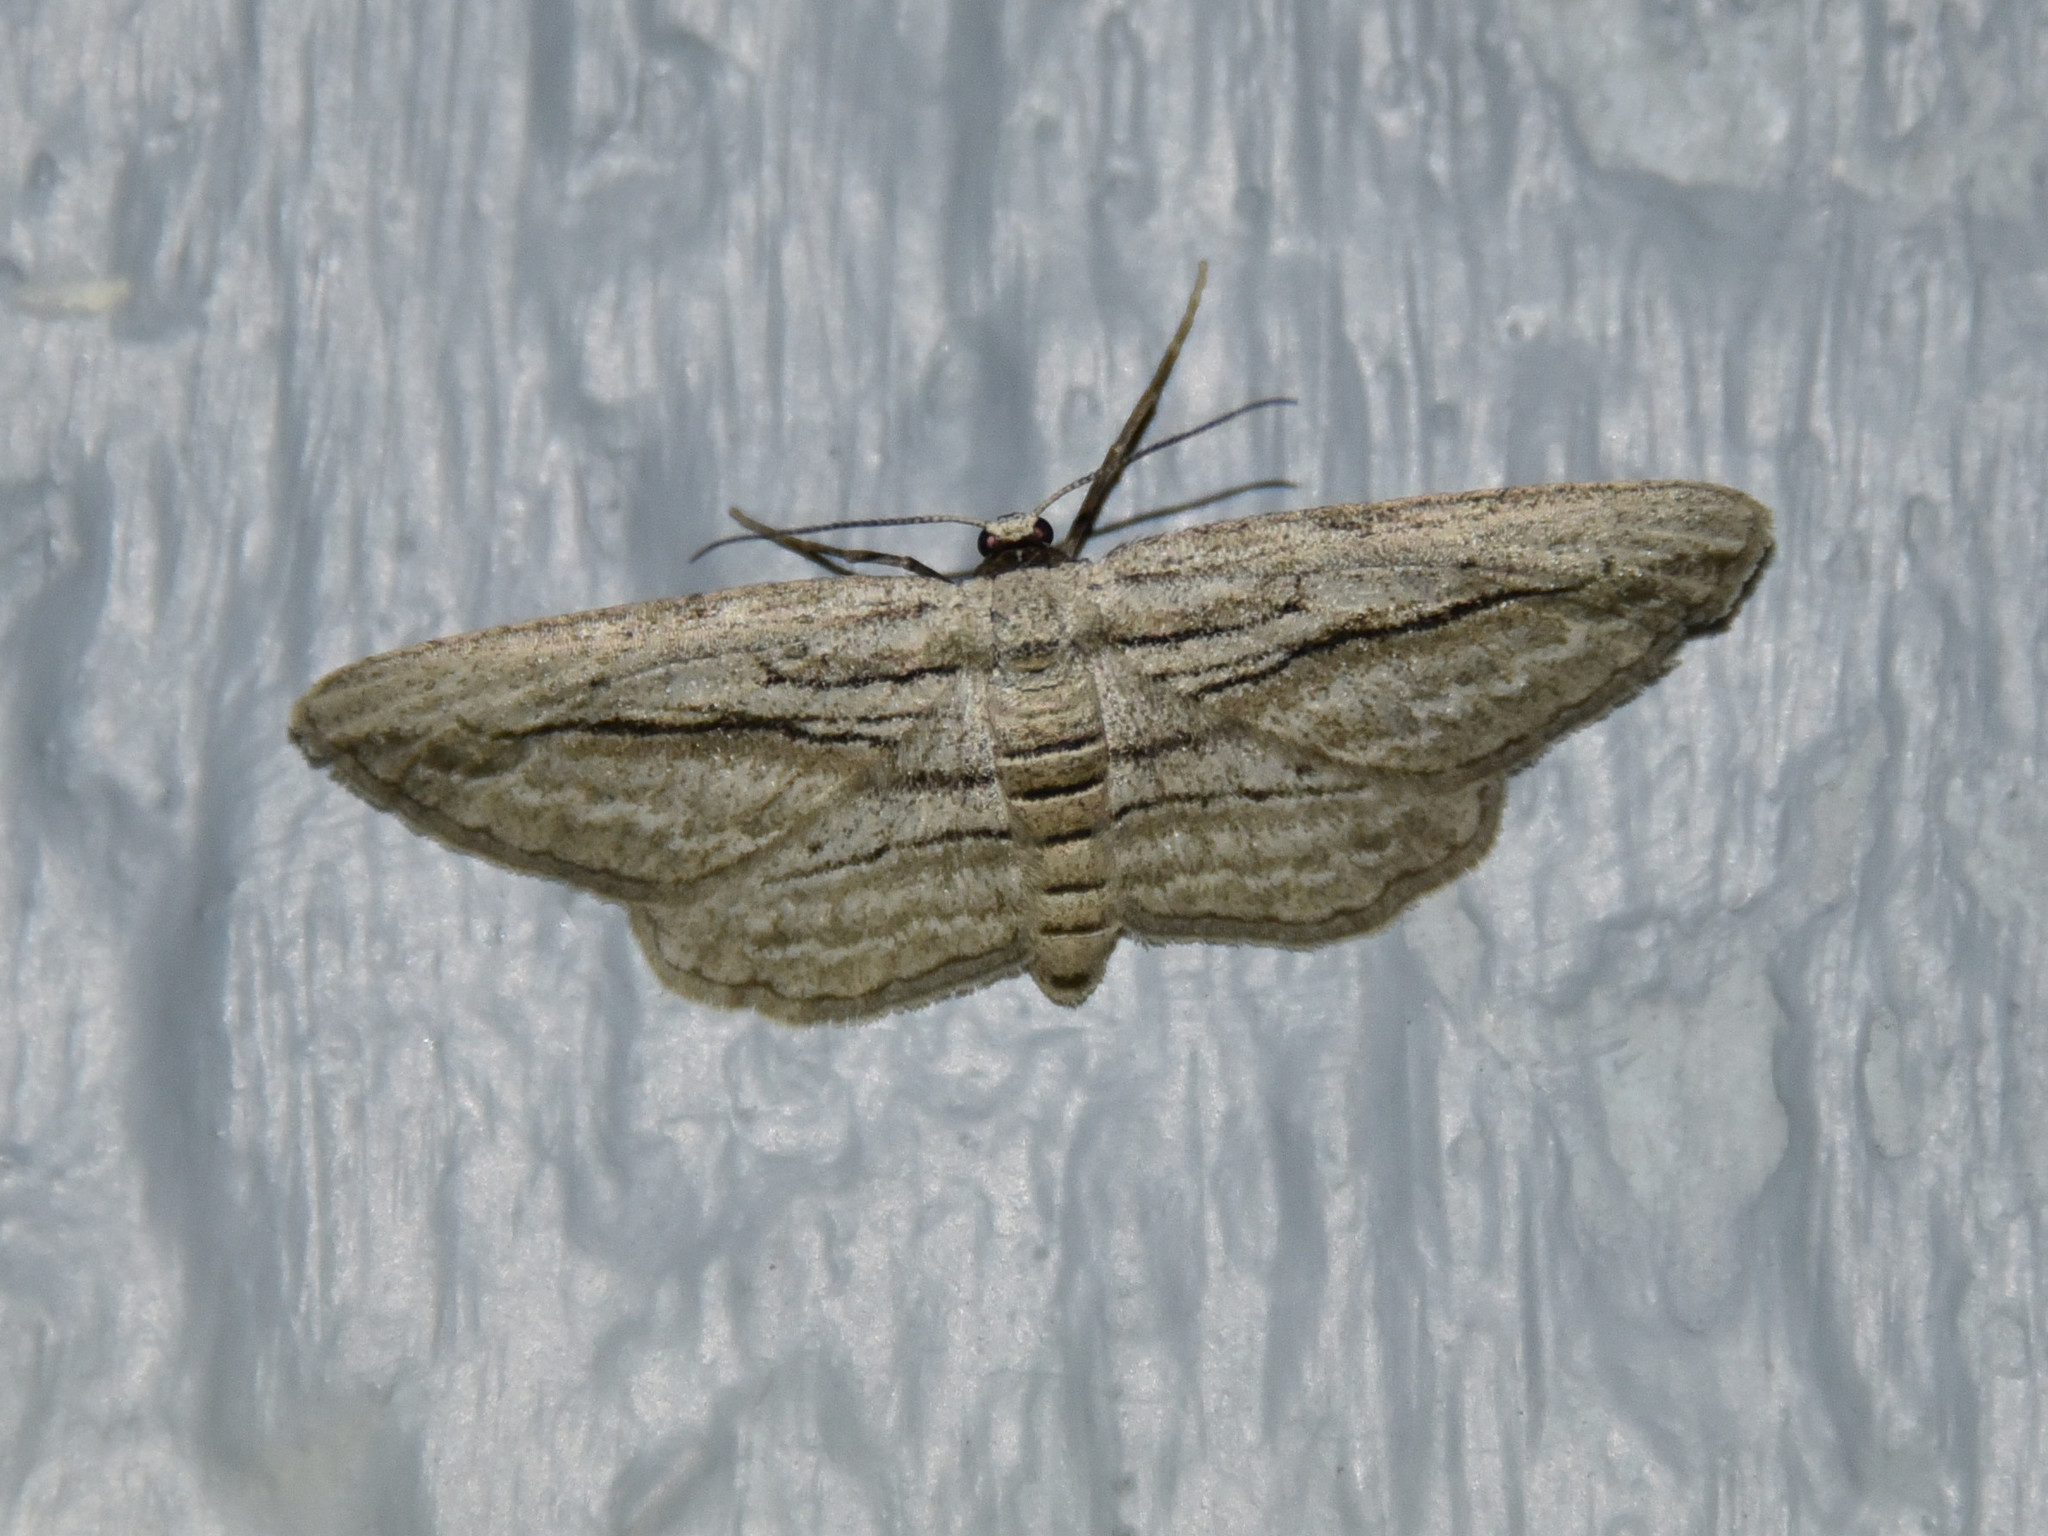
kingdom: Animalia
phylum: Arthropoda
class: Insecta
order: Lepidoptera
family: Geometridae
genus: Glena
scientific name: Glena quinquelinearia
